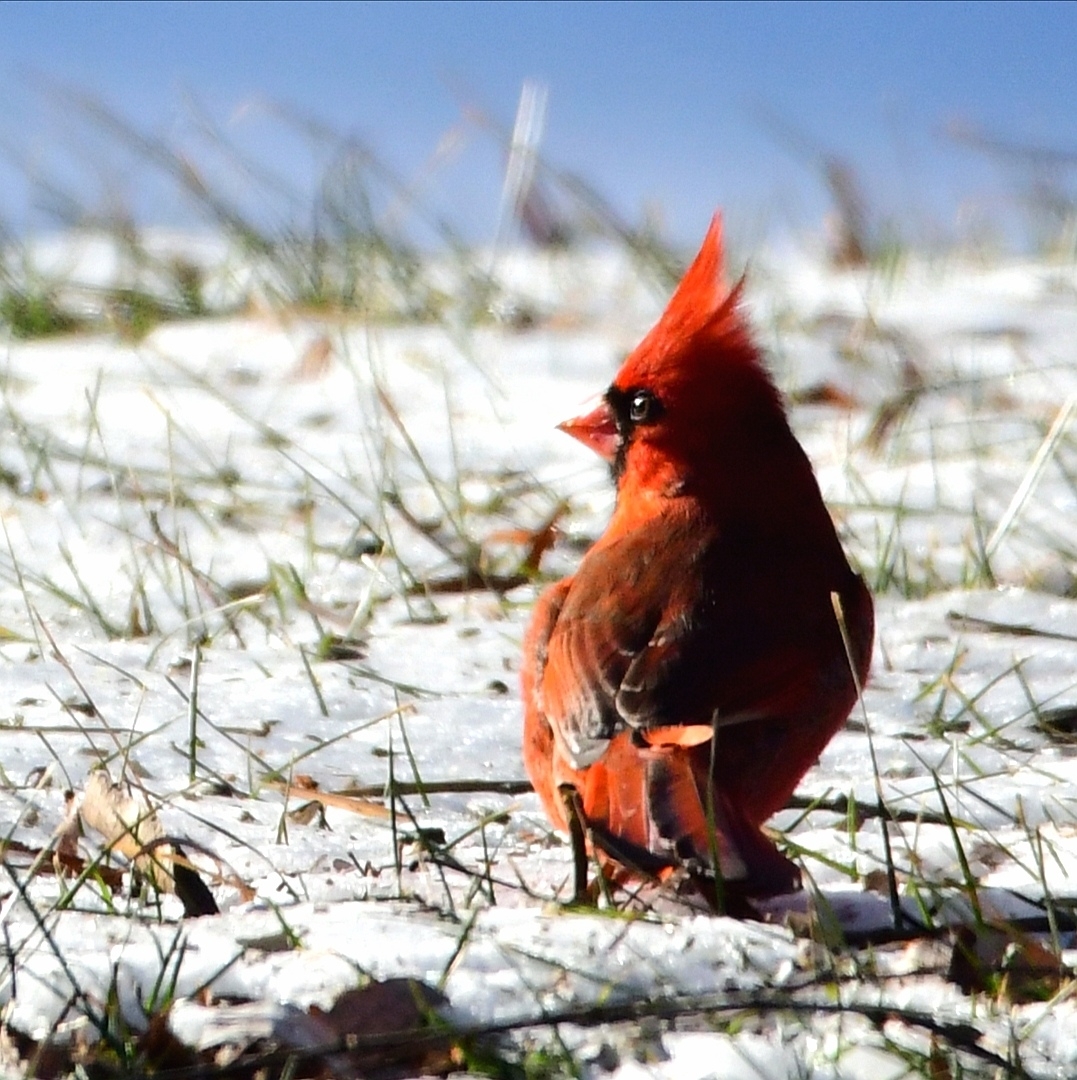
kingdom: Animalia
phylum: Chordata
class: Aves
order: Passeriformes
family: Cardinalidae
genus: Cardinalis
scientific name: Cardinalis cardinalis
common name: Northern cardinal
